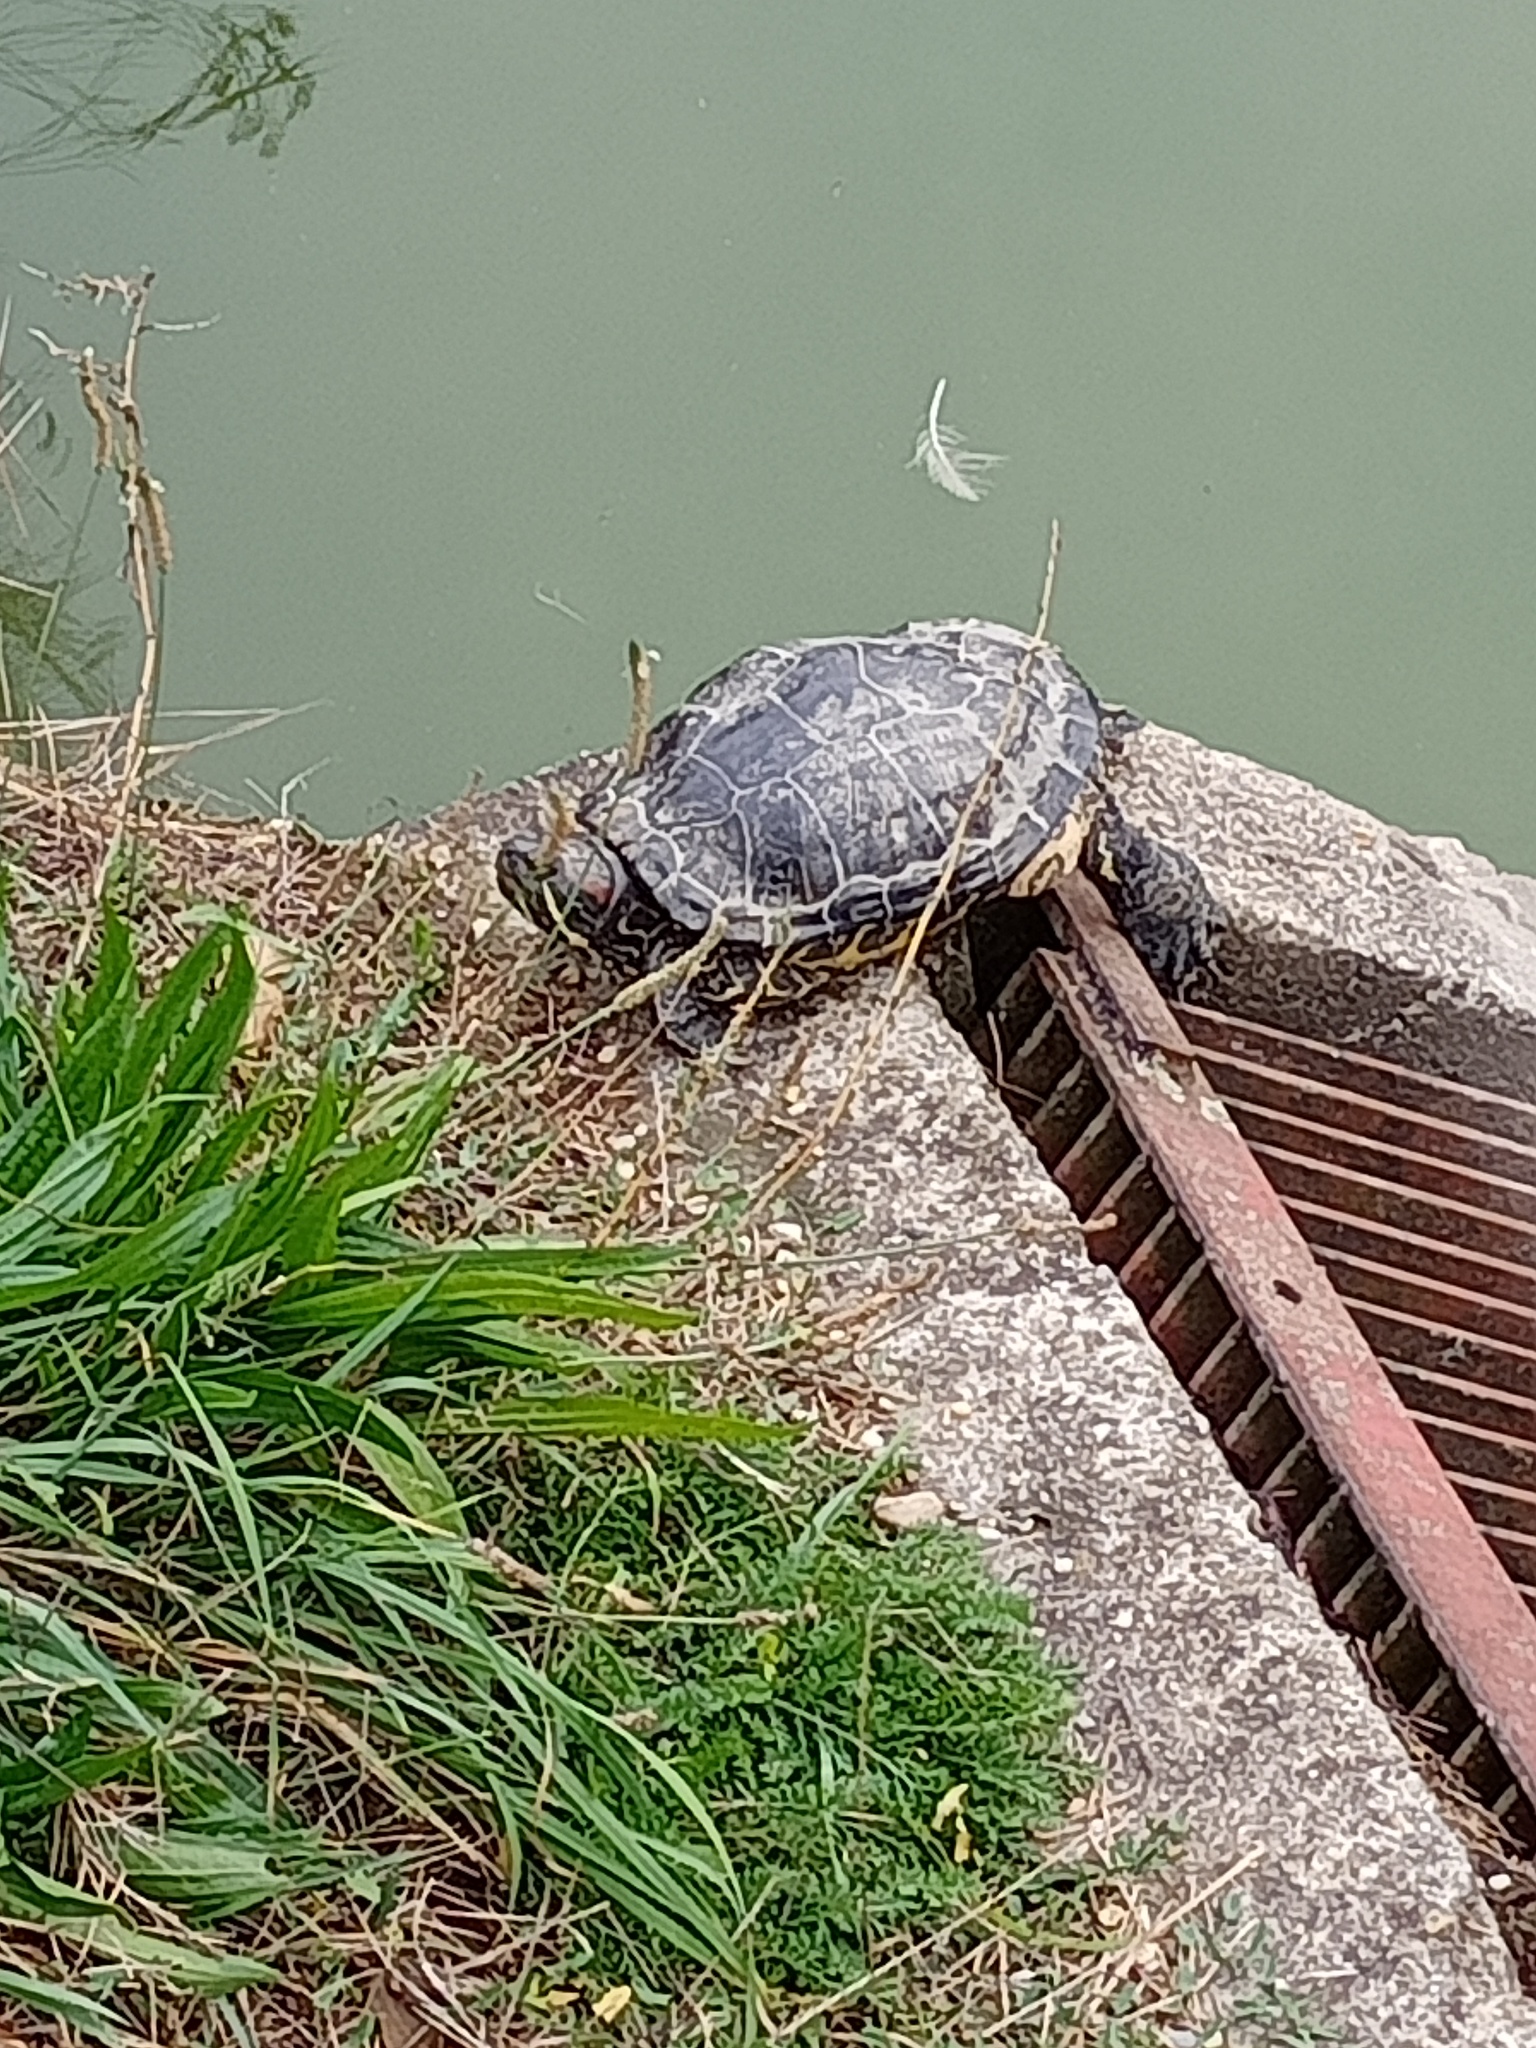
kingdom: Animalia
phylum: Chordata
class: Testudines
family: Emydidae
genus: Trachemys
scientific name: Trachemys scripta
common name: Slider
